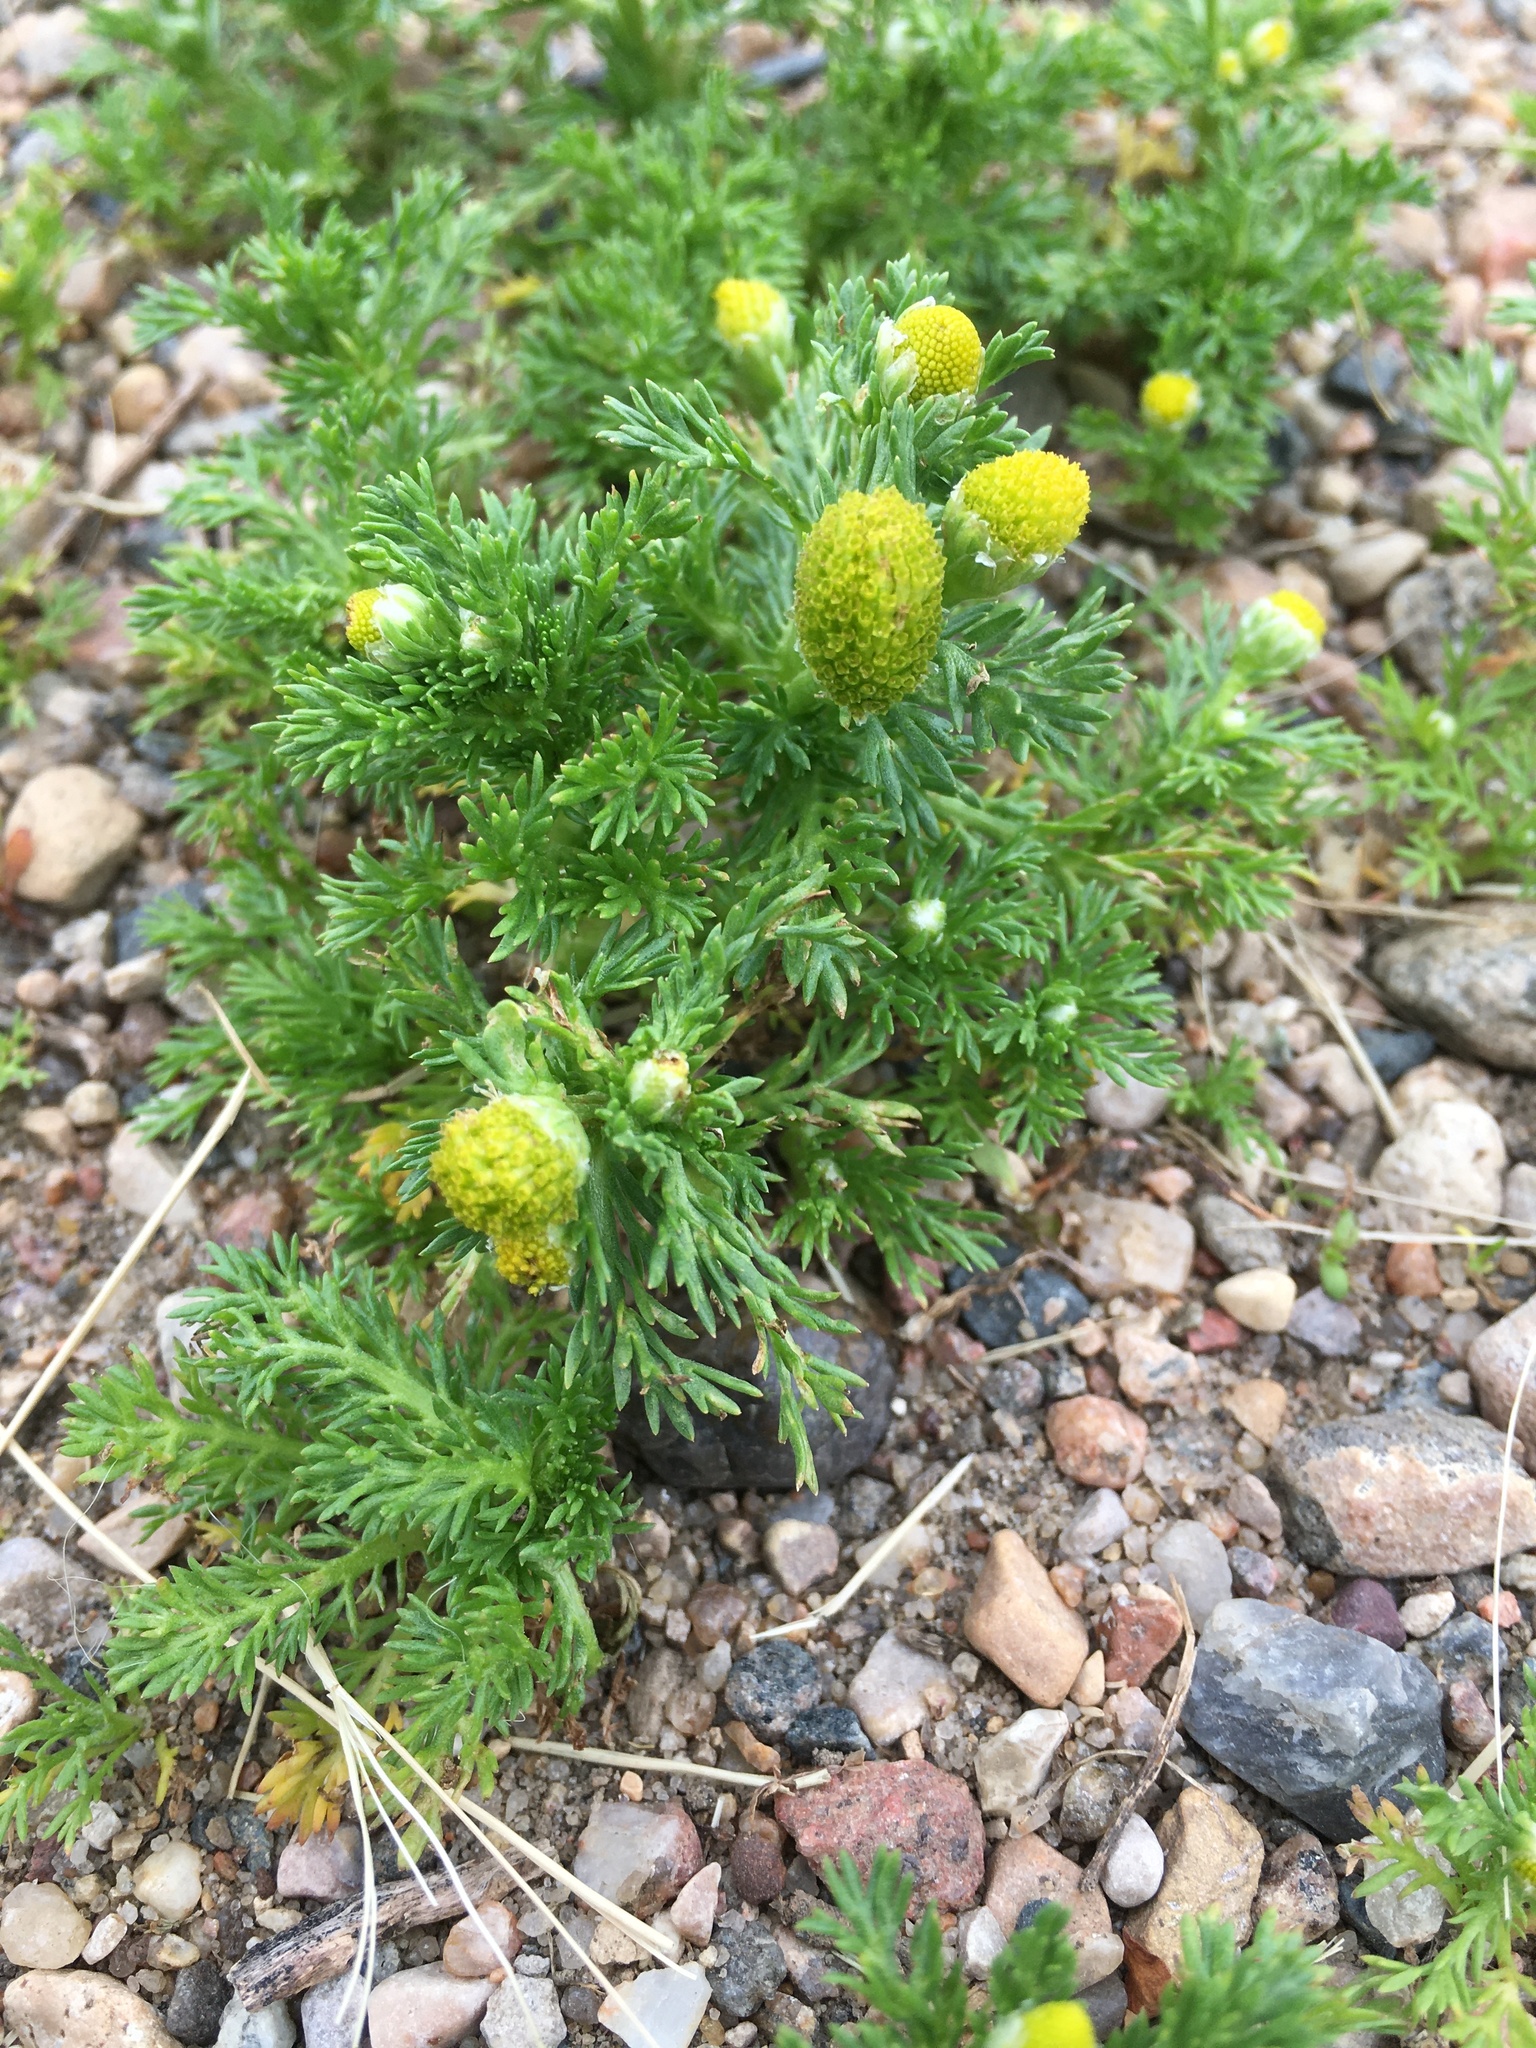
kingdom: Plantae
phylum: Tracheophyta
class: Magnoliopsida
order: Asterales
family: Asteraceae
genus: Matricaria
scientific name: Matricaria discoidea
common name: Disc mayweed
